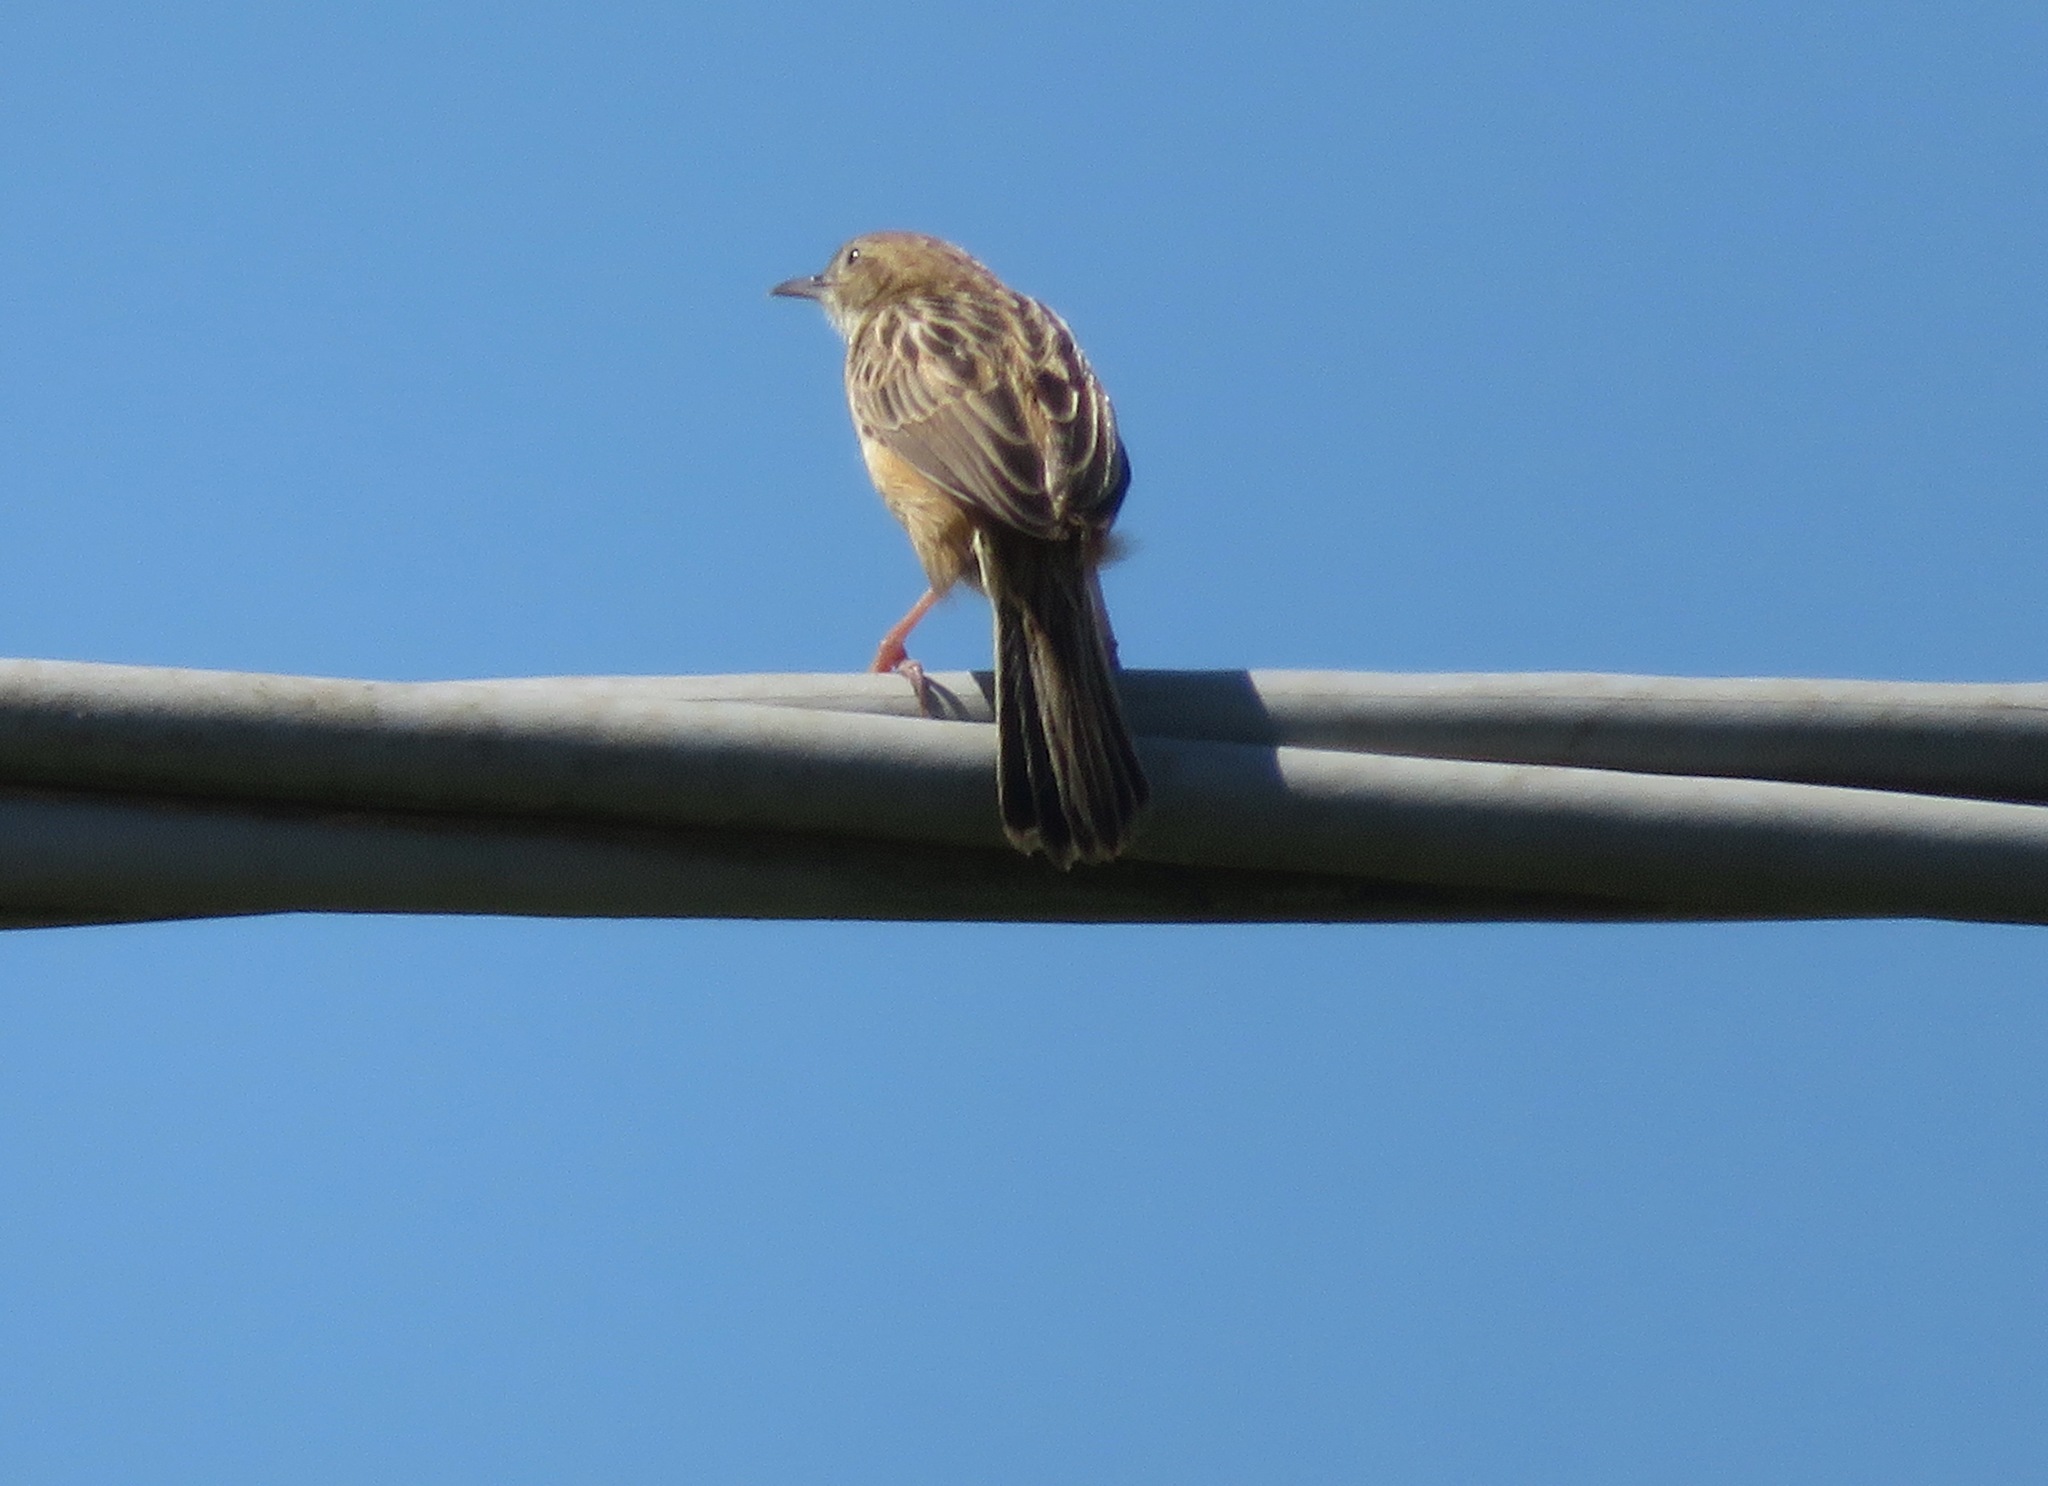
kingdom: Animalia
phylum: Chordata
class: Aves
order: Passeriformes
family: Cisticolidae
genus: Cisticola
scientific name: Cisticola juncidis
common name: Zitting cisticola
